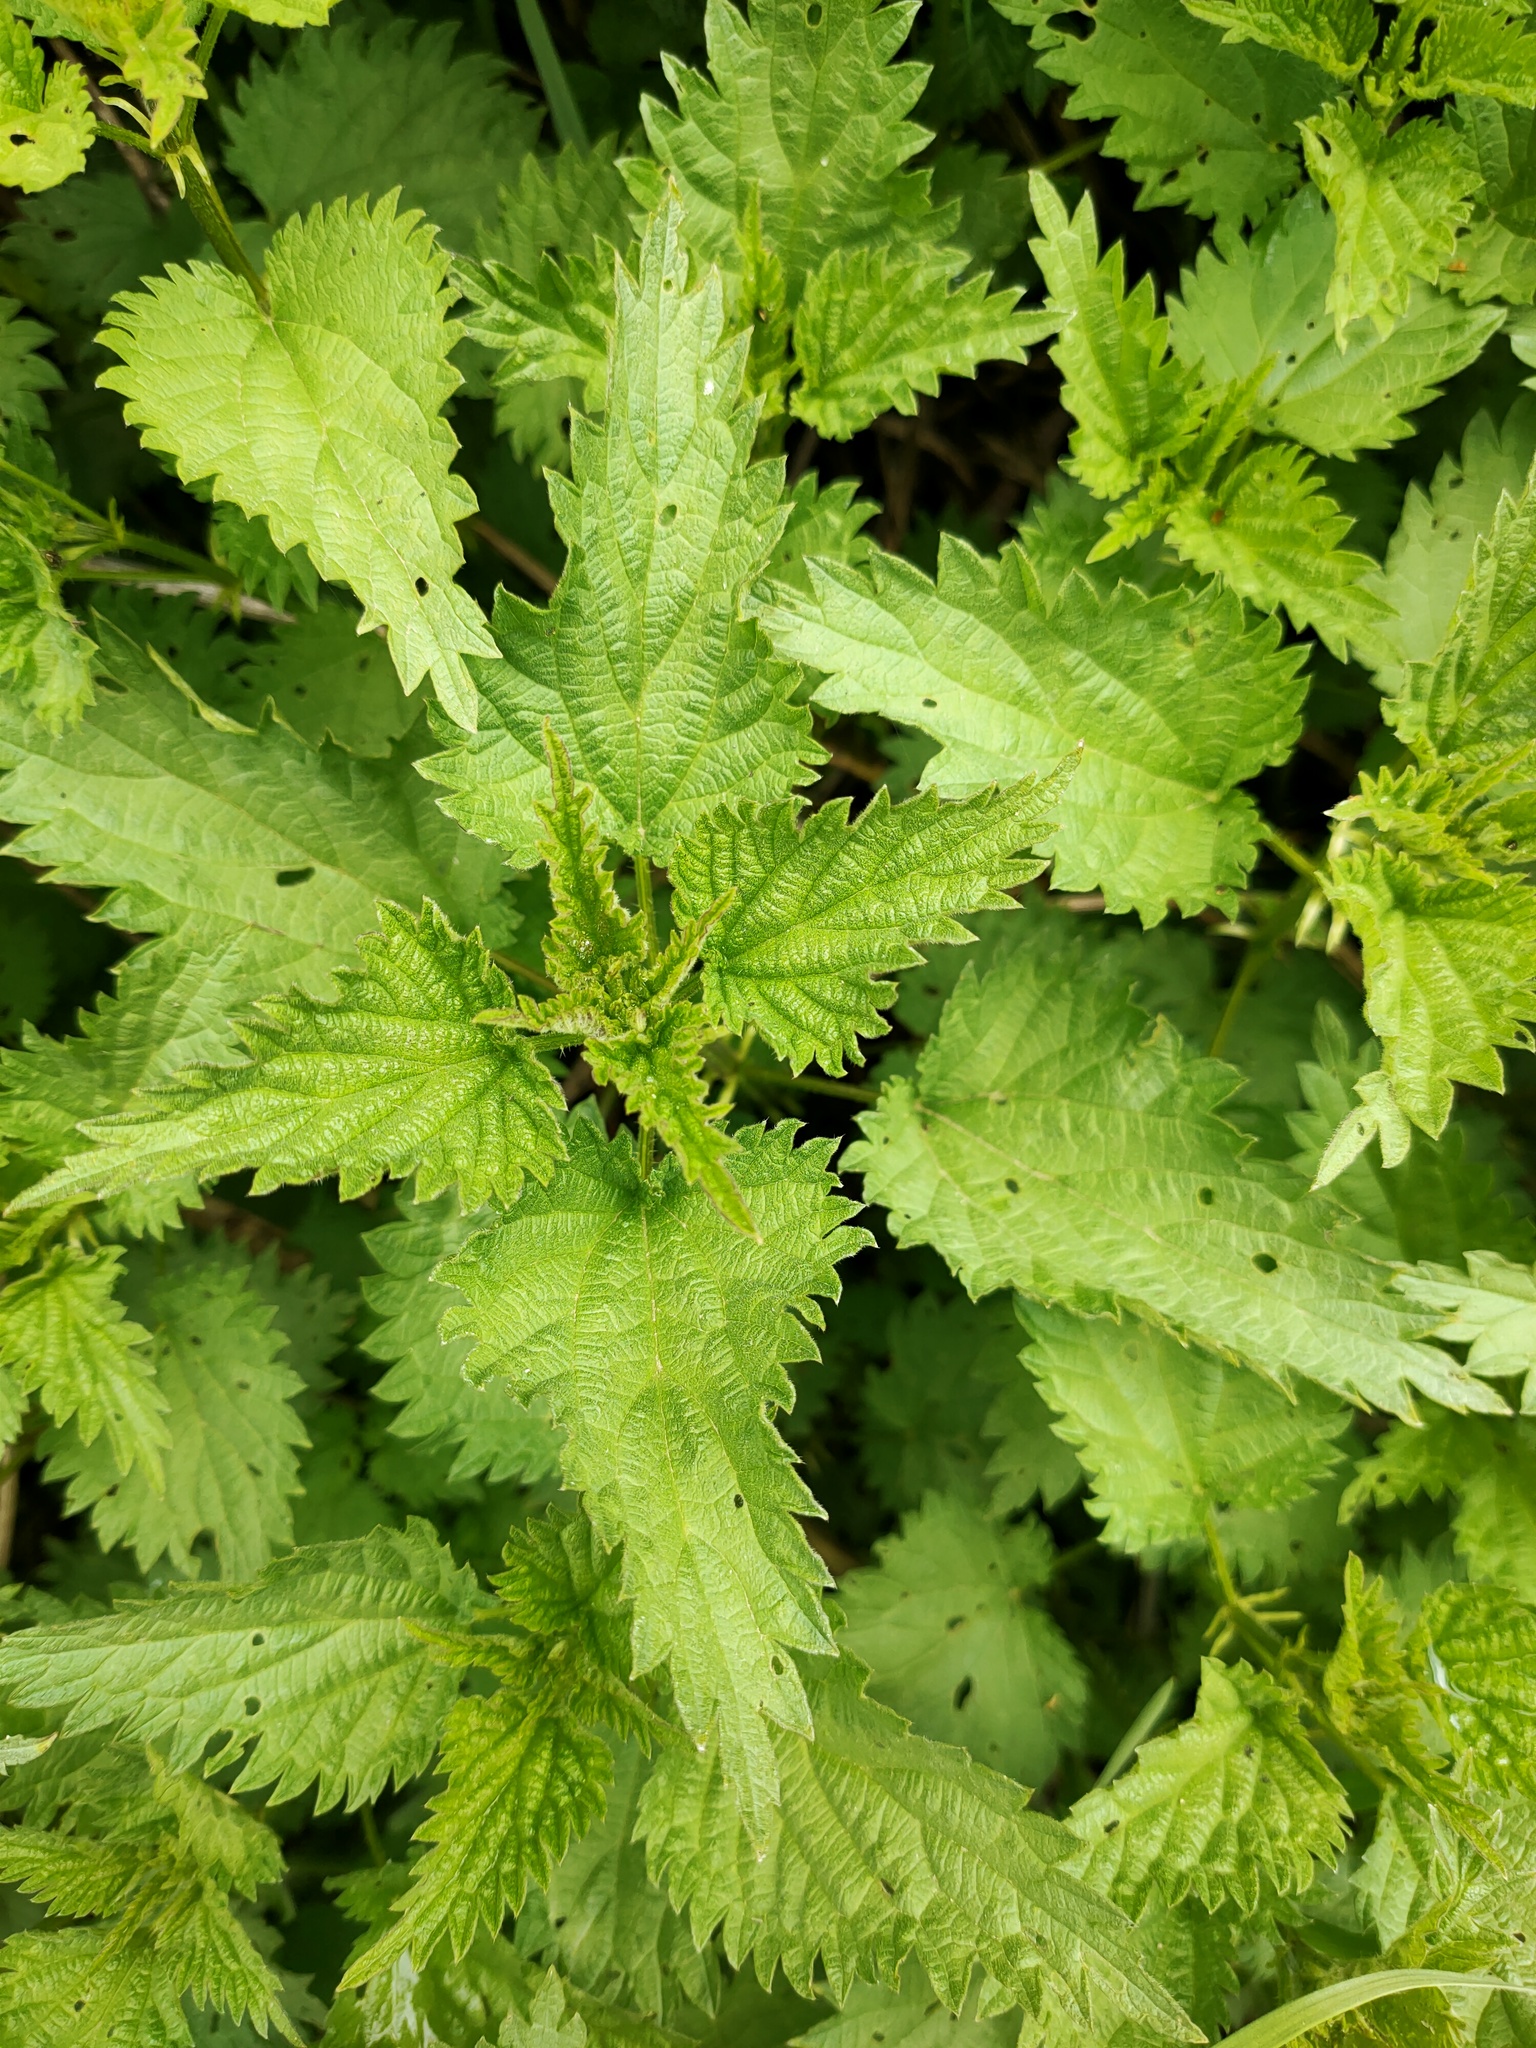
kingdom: Plantae
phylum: Tracheophyta
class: Magnoliopsida
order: Rosales
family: Urticaceae
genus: Urtica
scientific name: Urtica dioica
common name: Common nettle
